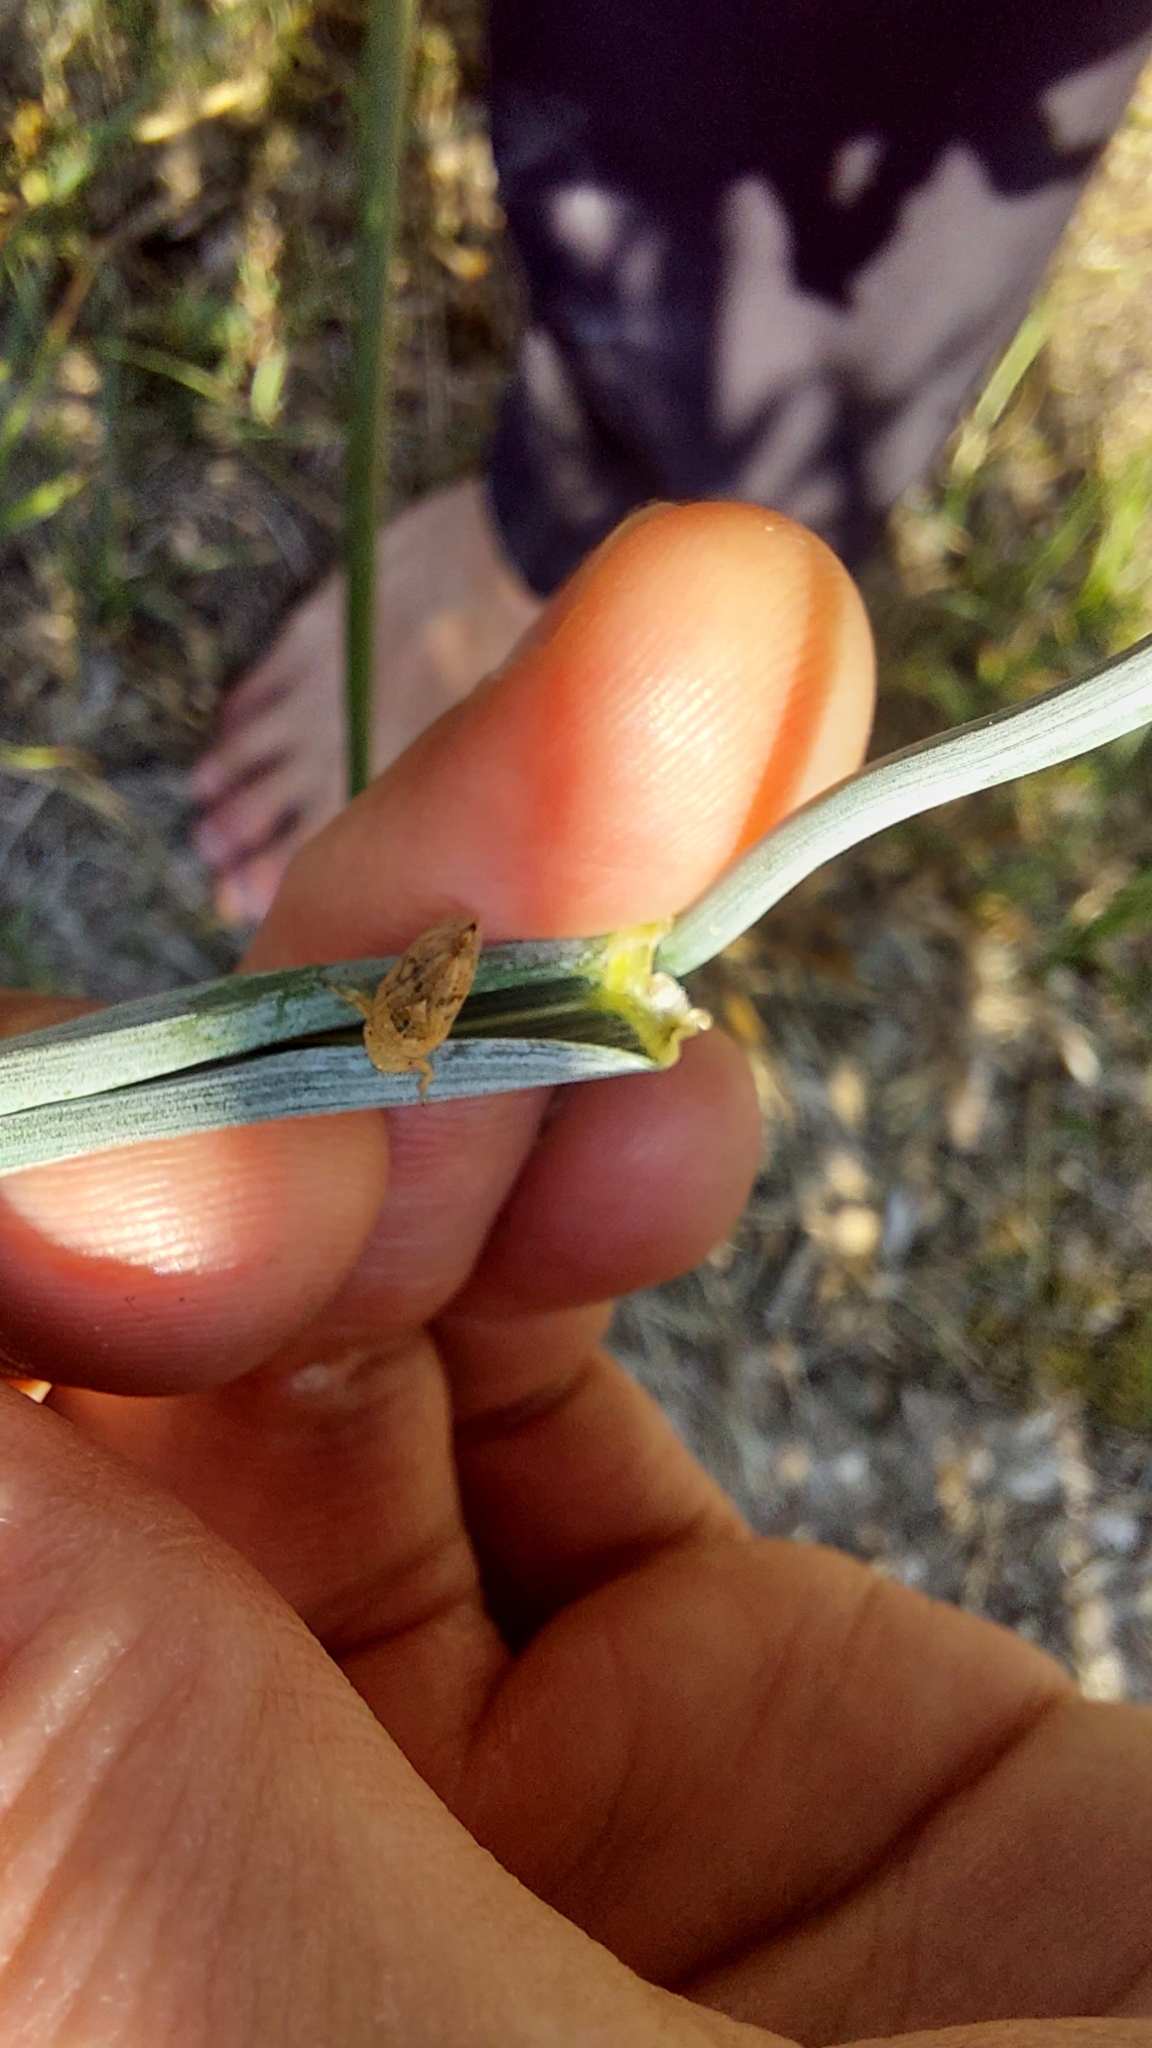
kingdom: Animalia
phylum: Arthropoda
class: Insecta
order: Hemiptera
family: Aphrophoridae
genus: Philaenus
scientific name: Philaenus spumarius
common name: Meadow spittlebug
